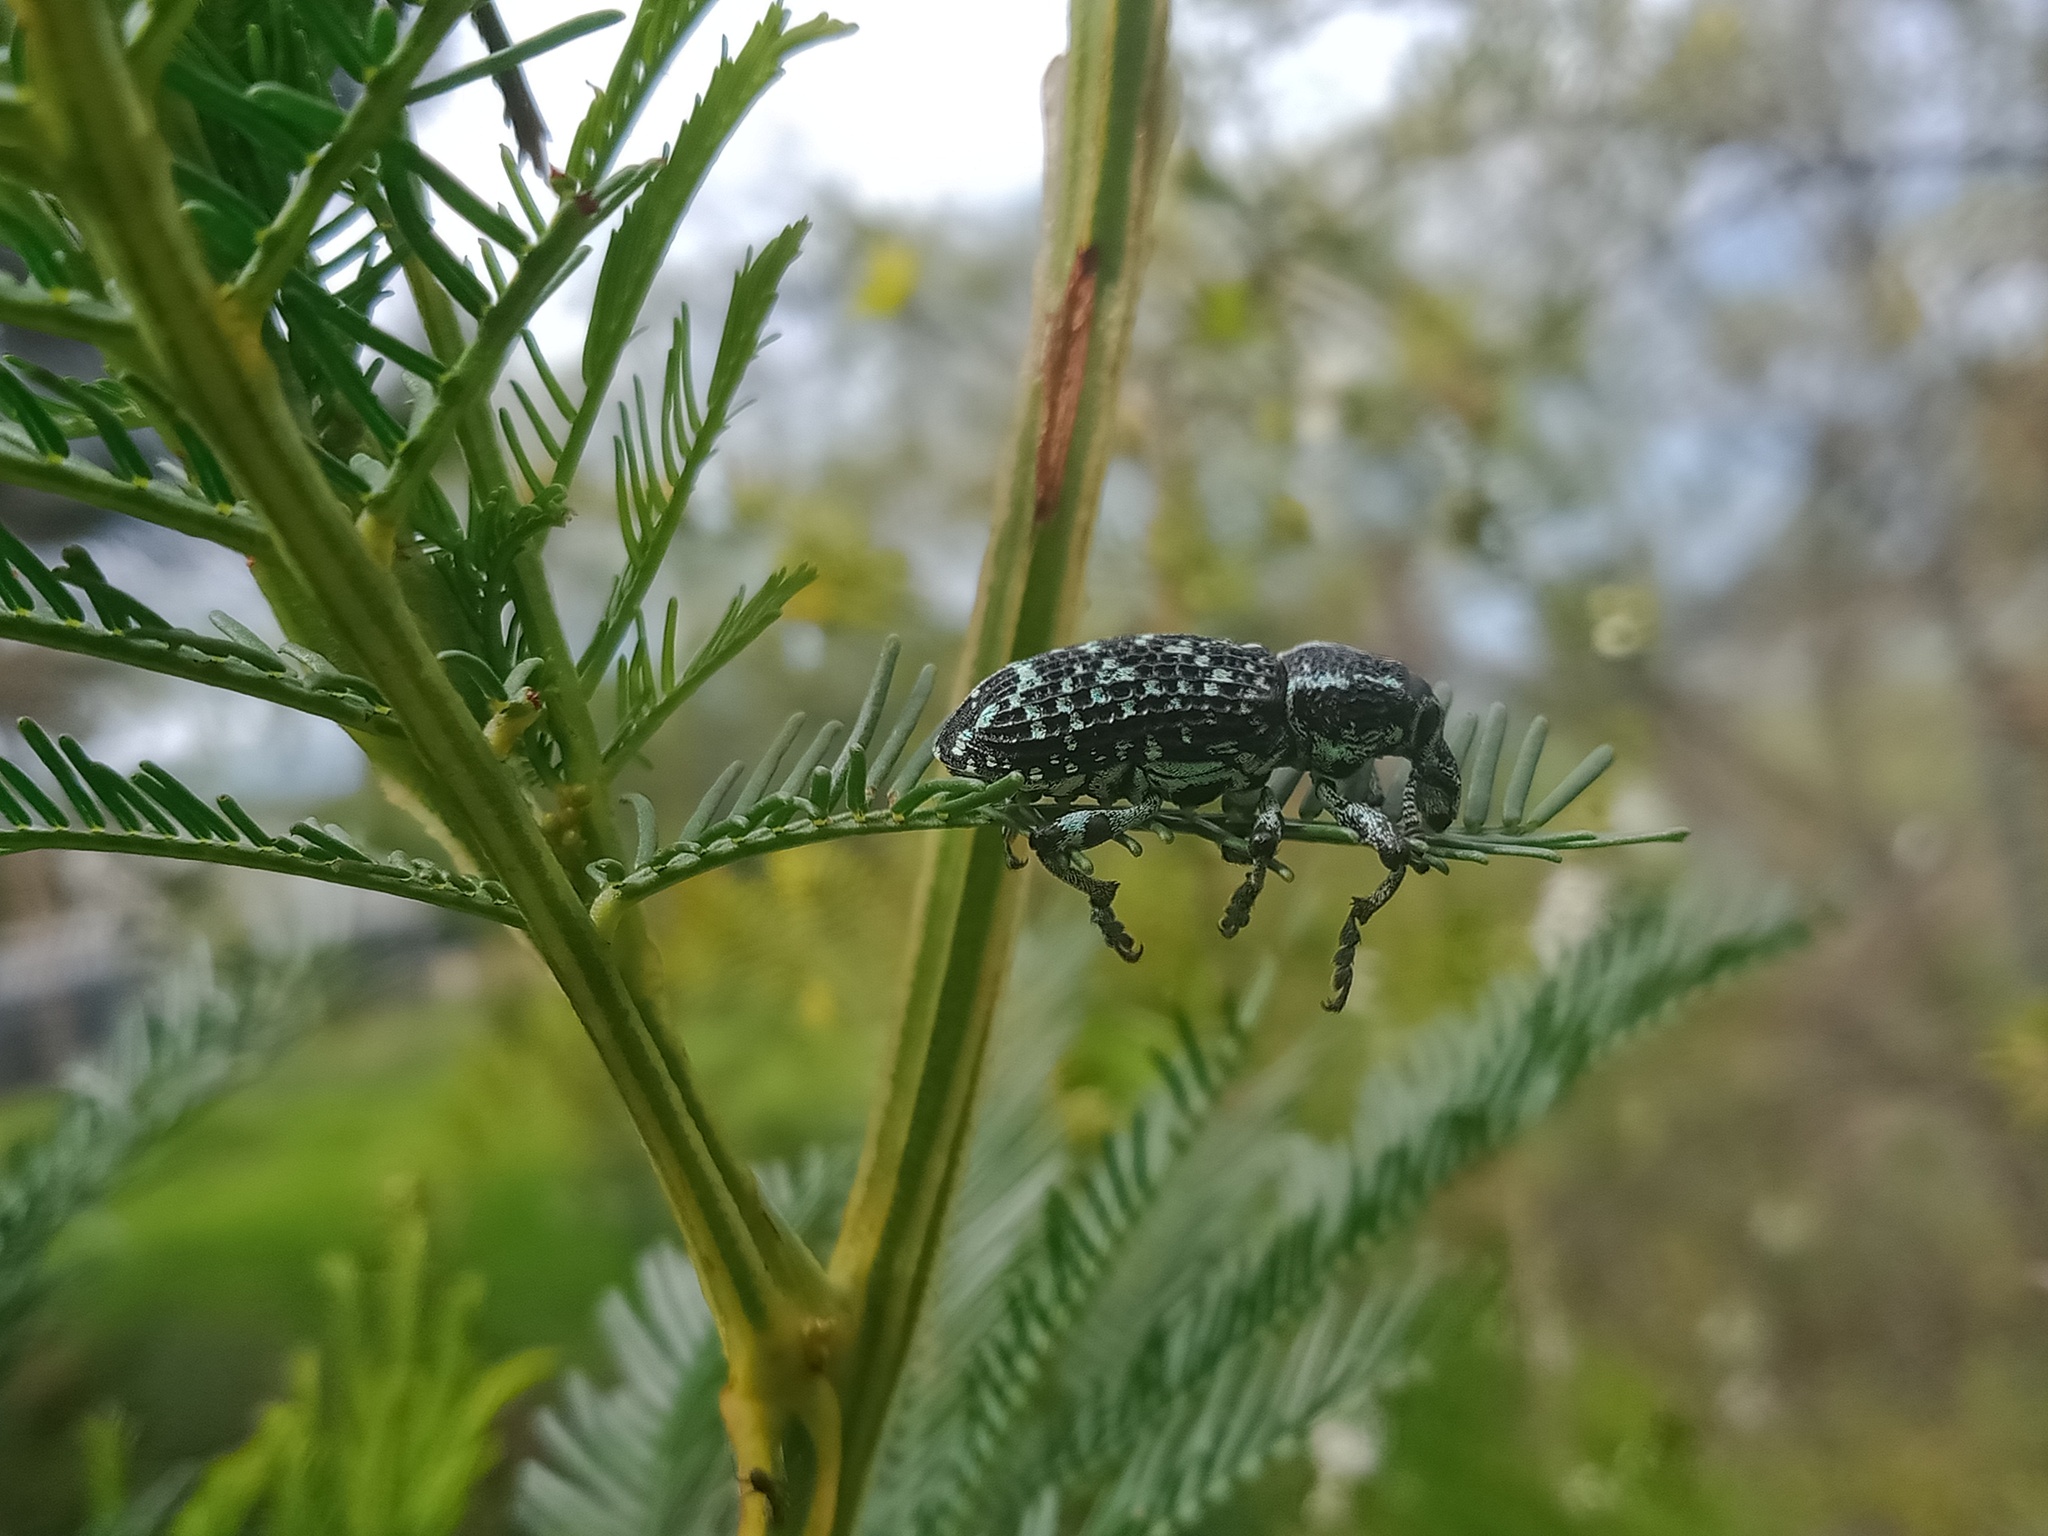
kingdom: Animalia
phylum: Arthropoda
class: Insecta
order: Coleoptera
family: Curculionidae
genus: Chrysolopus
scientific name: Chrysolopus spectabilis
